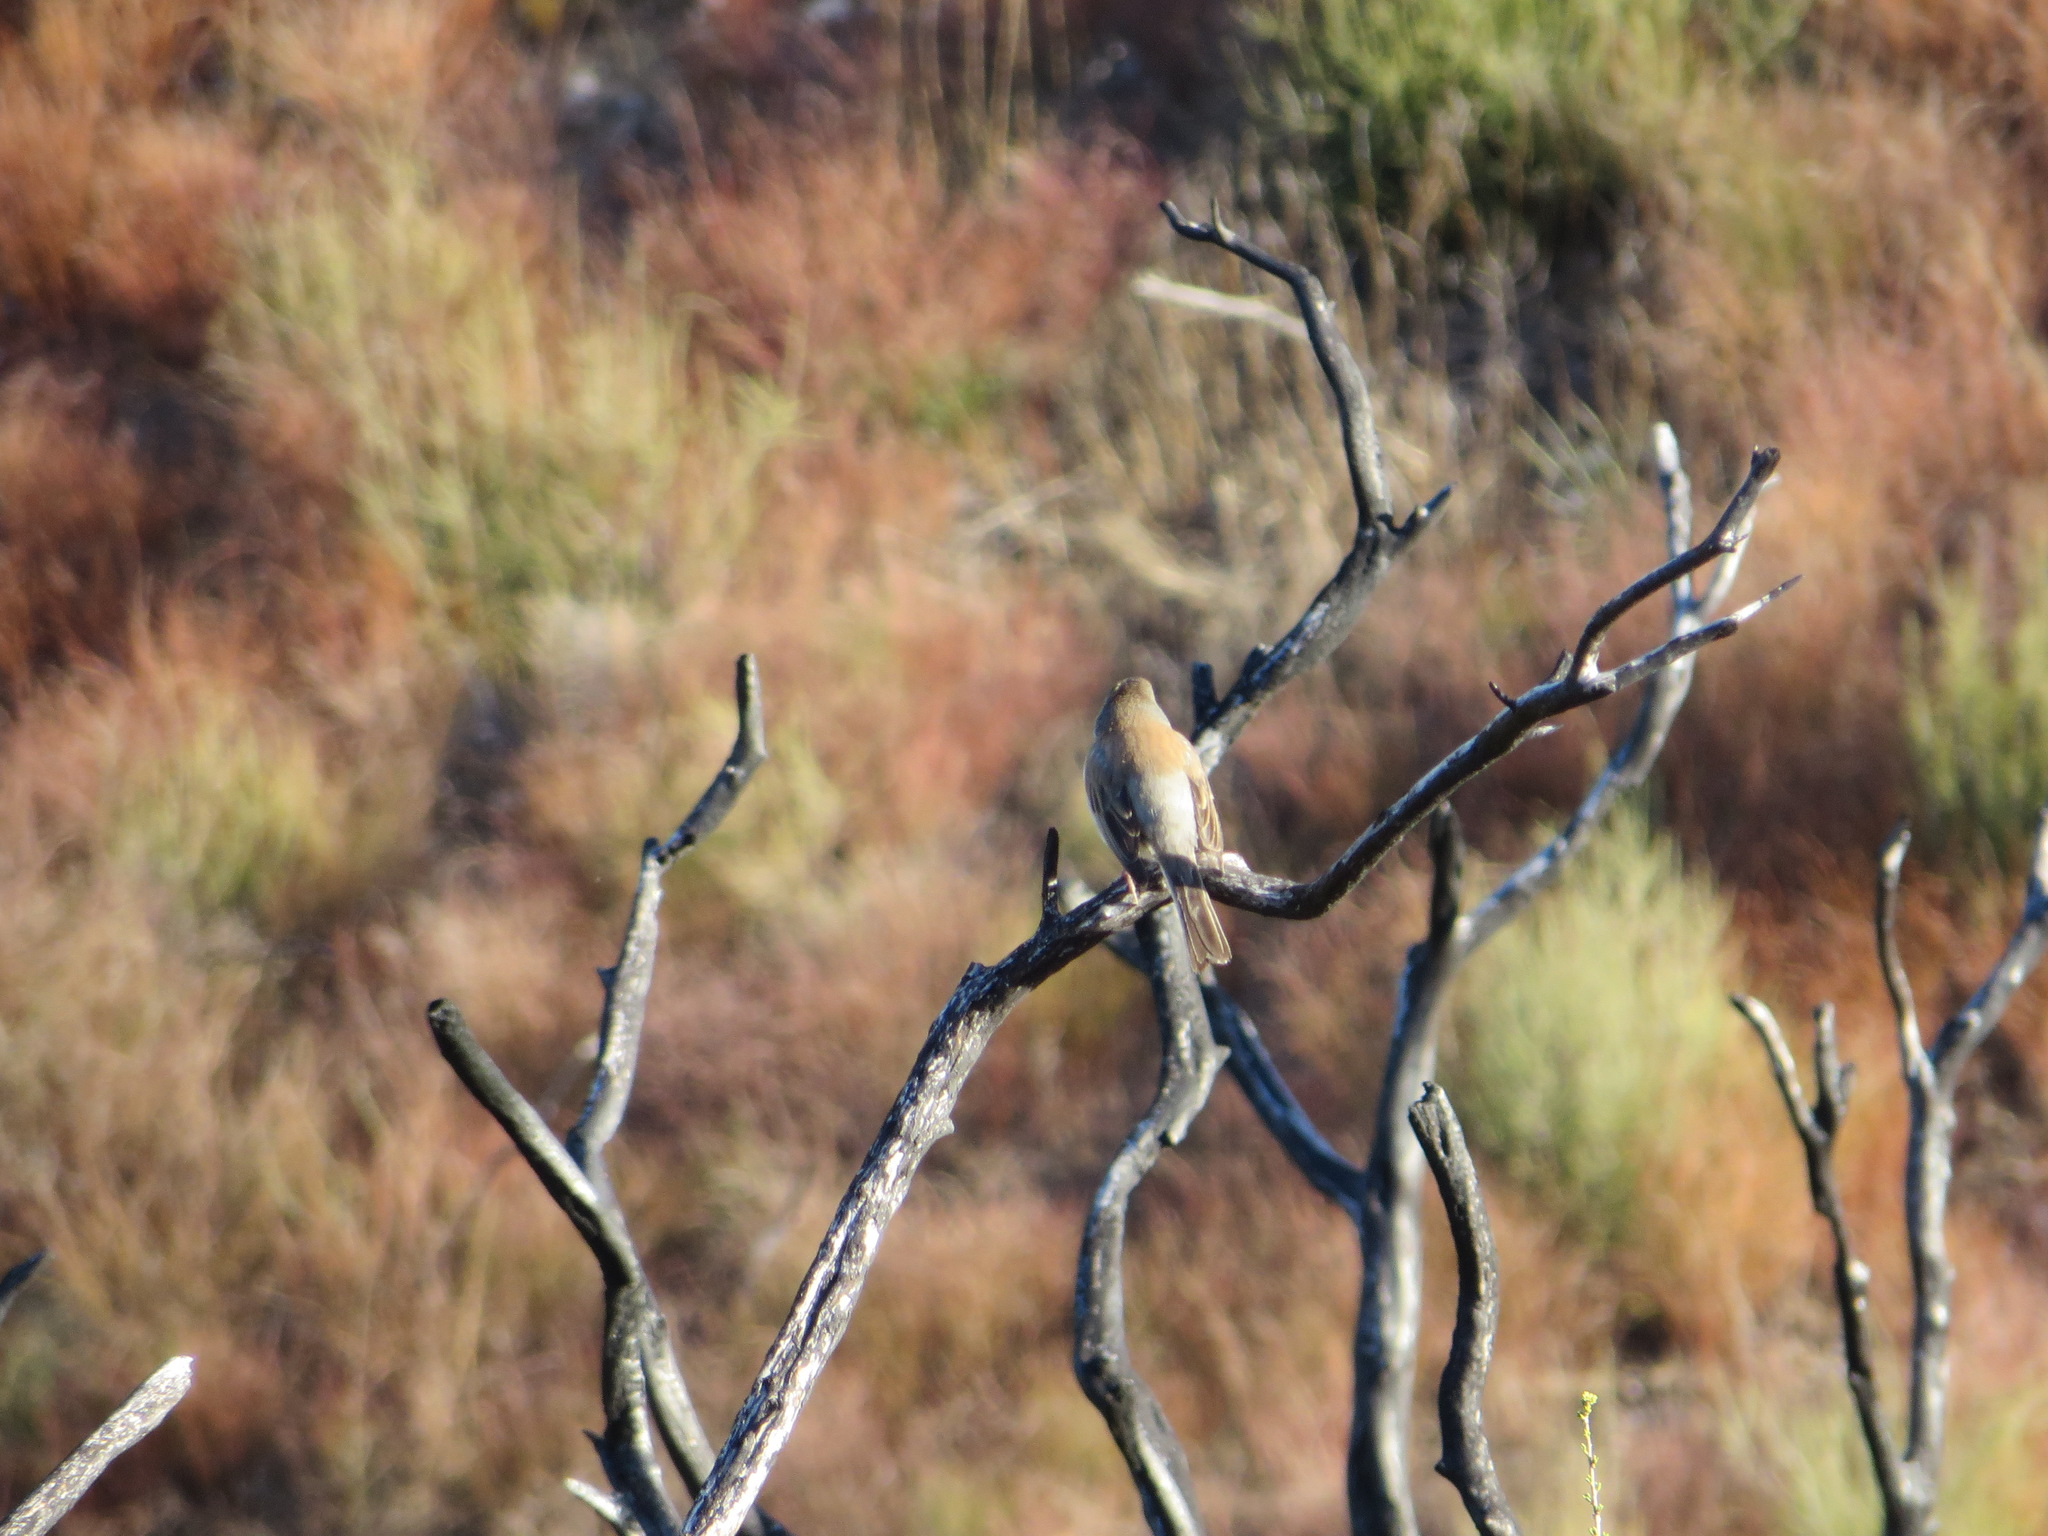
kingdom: Animalia
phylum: Chordata
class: Aves
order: Passeriformes
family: Passerellidae
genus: Junco
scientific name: Junco hyemalis
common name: Dark-eyed junco
